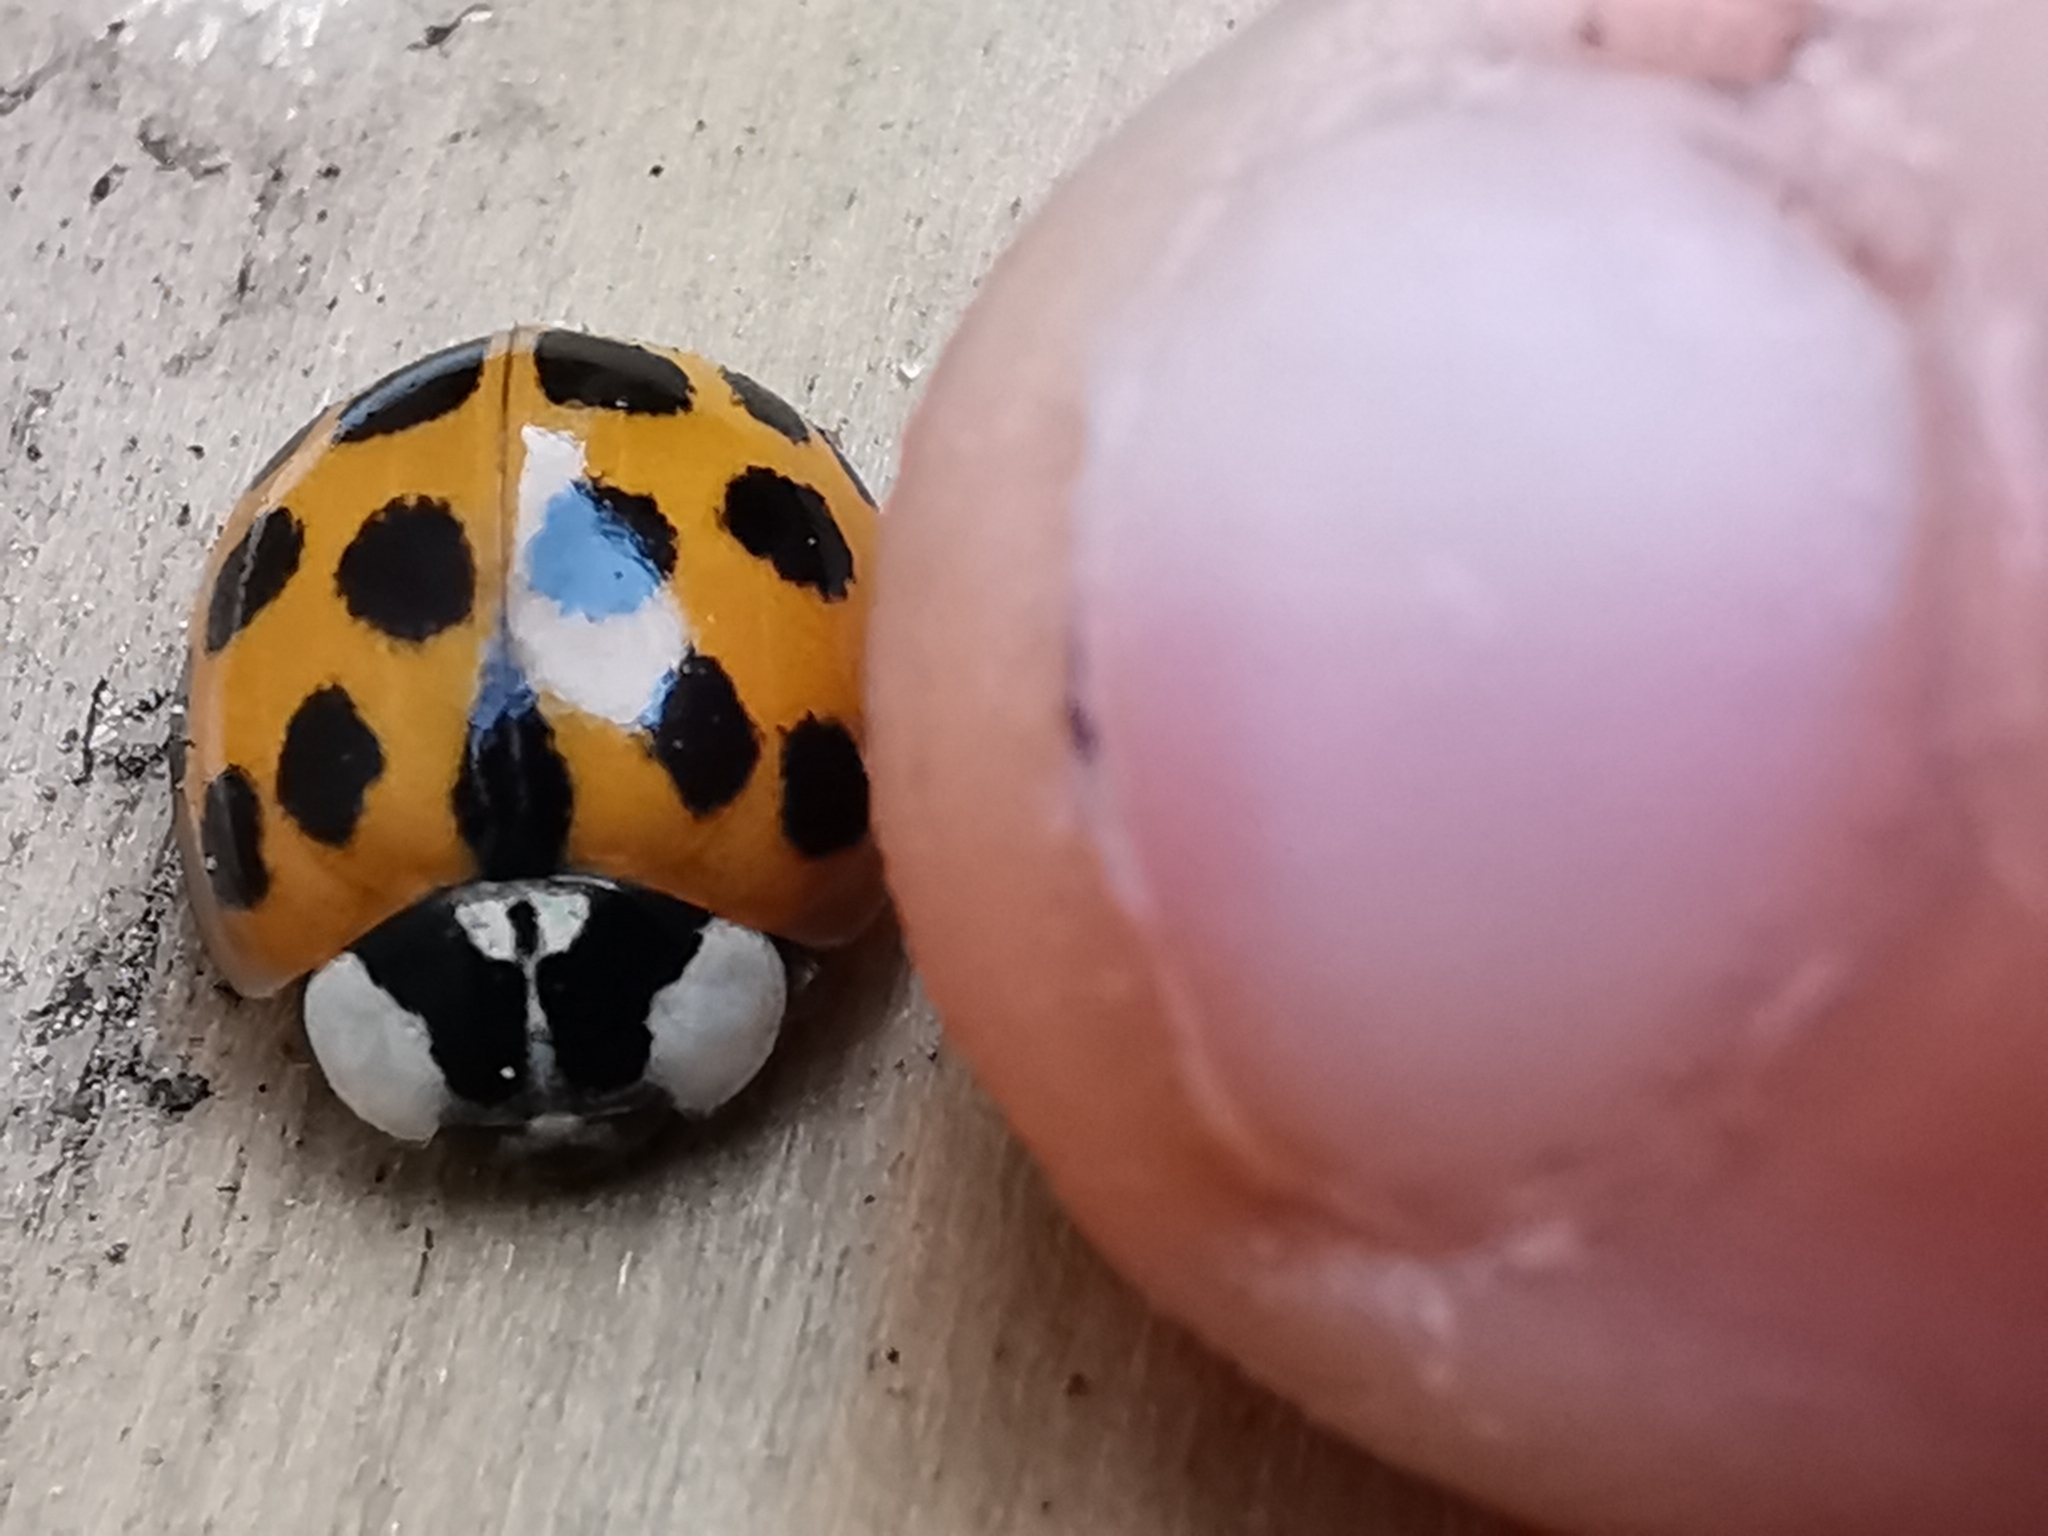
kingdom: Animalia
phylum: Arthropoda
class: Insecta
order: Coleoptera
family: Coccinellidae
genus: Harmonia
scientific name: Harmonia axyridis
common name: Harlequin ladybird
